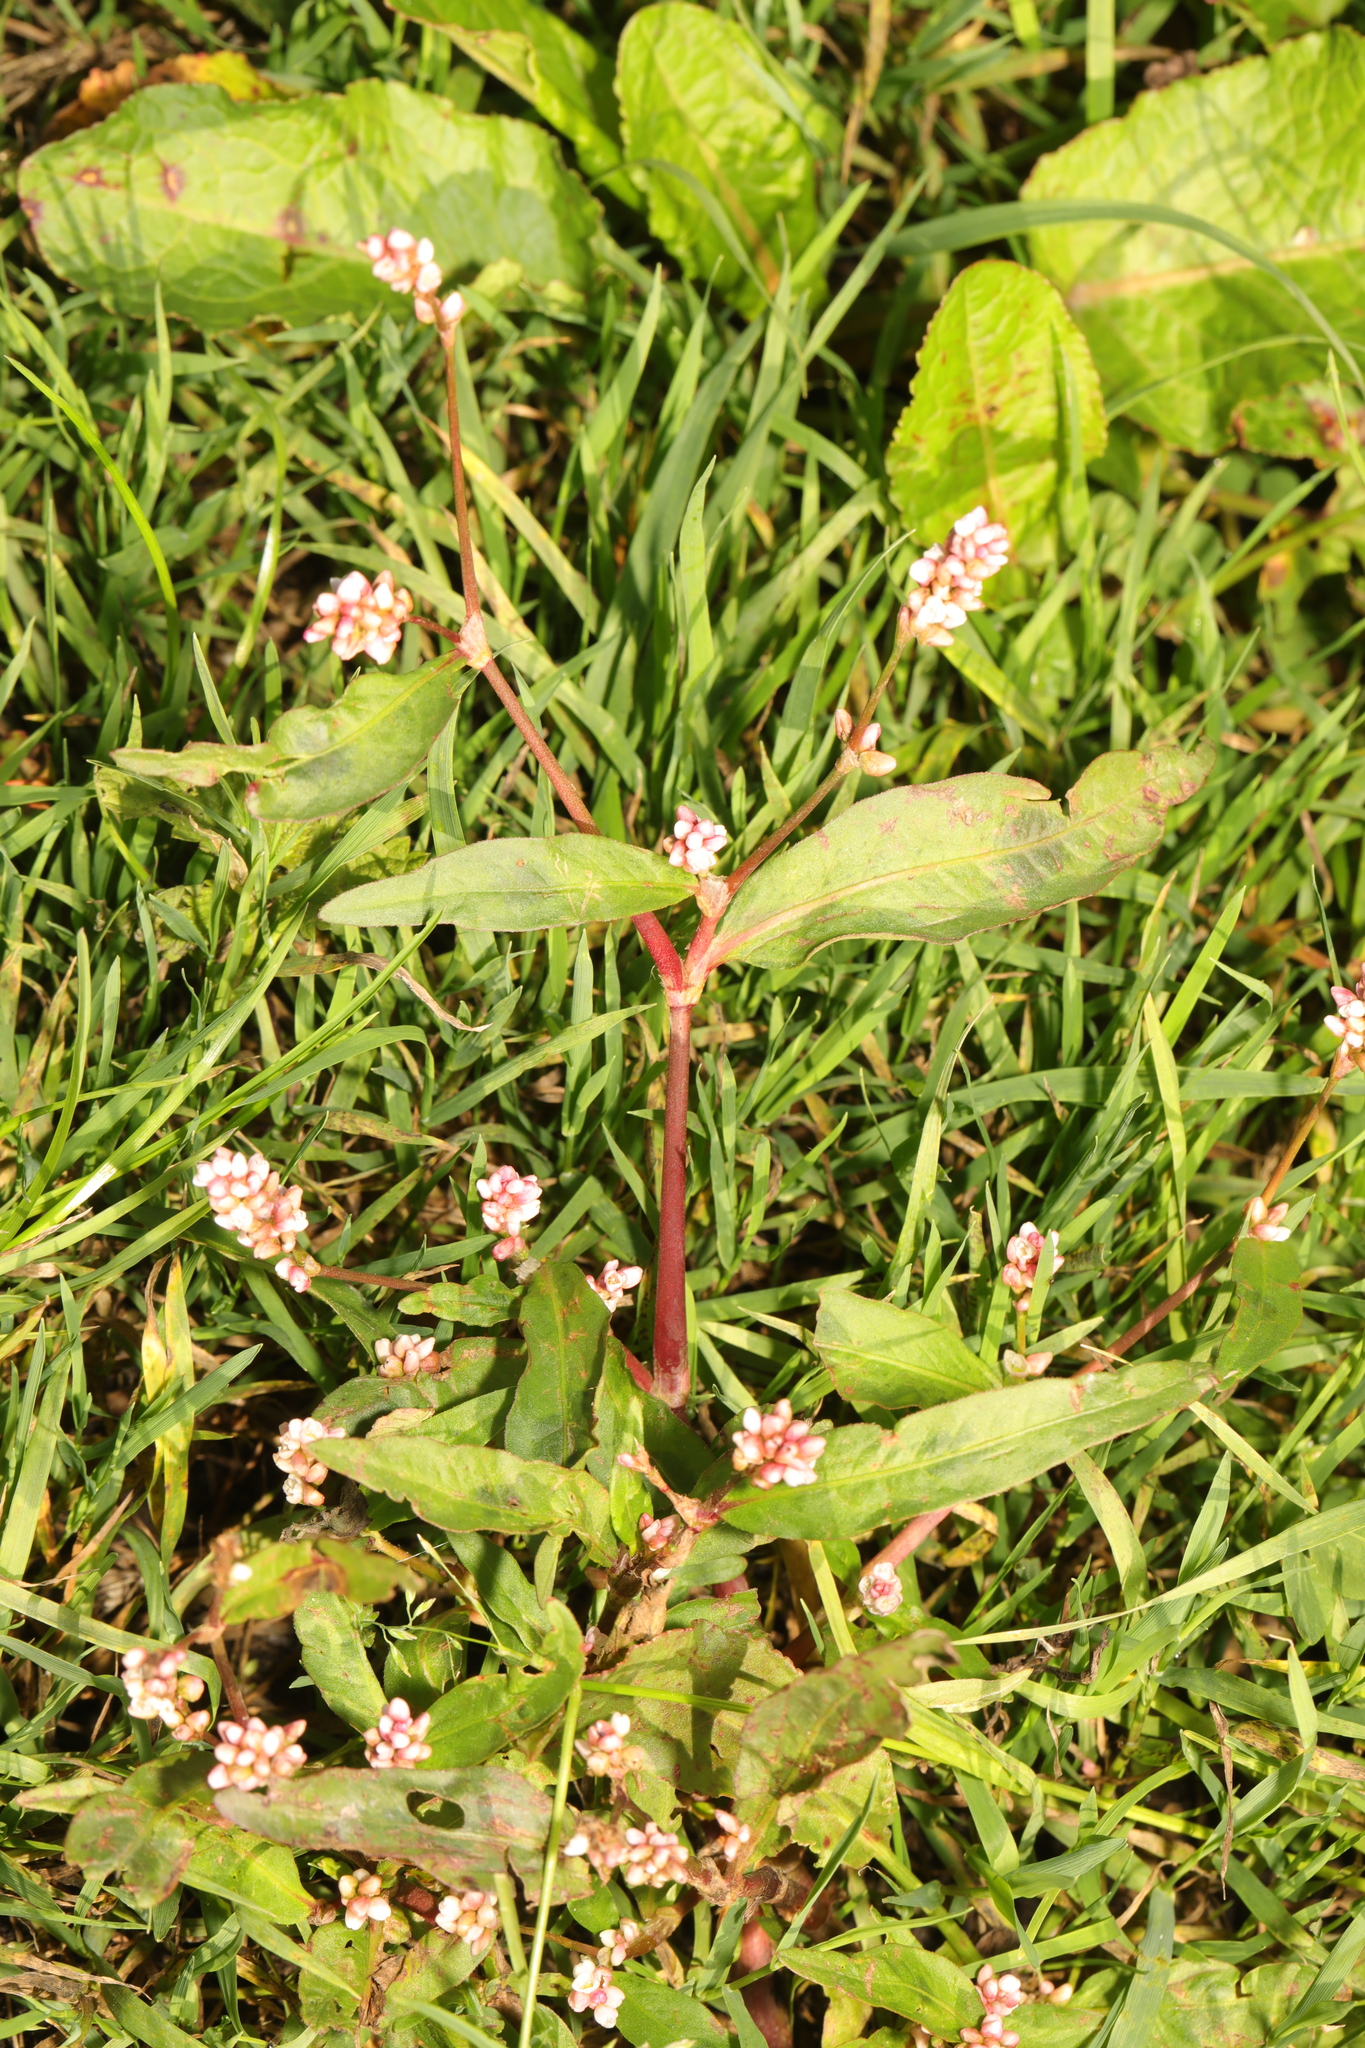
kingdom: Plantae
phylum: Tracheophyta
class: Magnoliopsida
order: Caryophyllales
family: Polygonaceae
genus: Persicaria
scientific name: Persicaria maculosa
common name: Redshank
